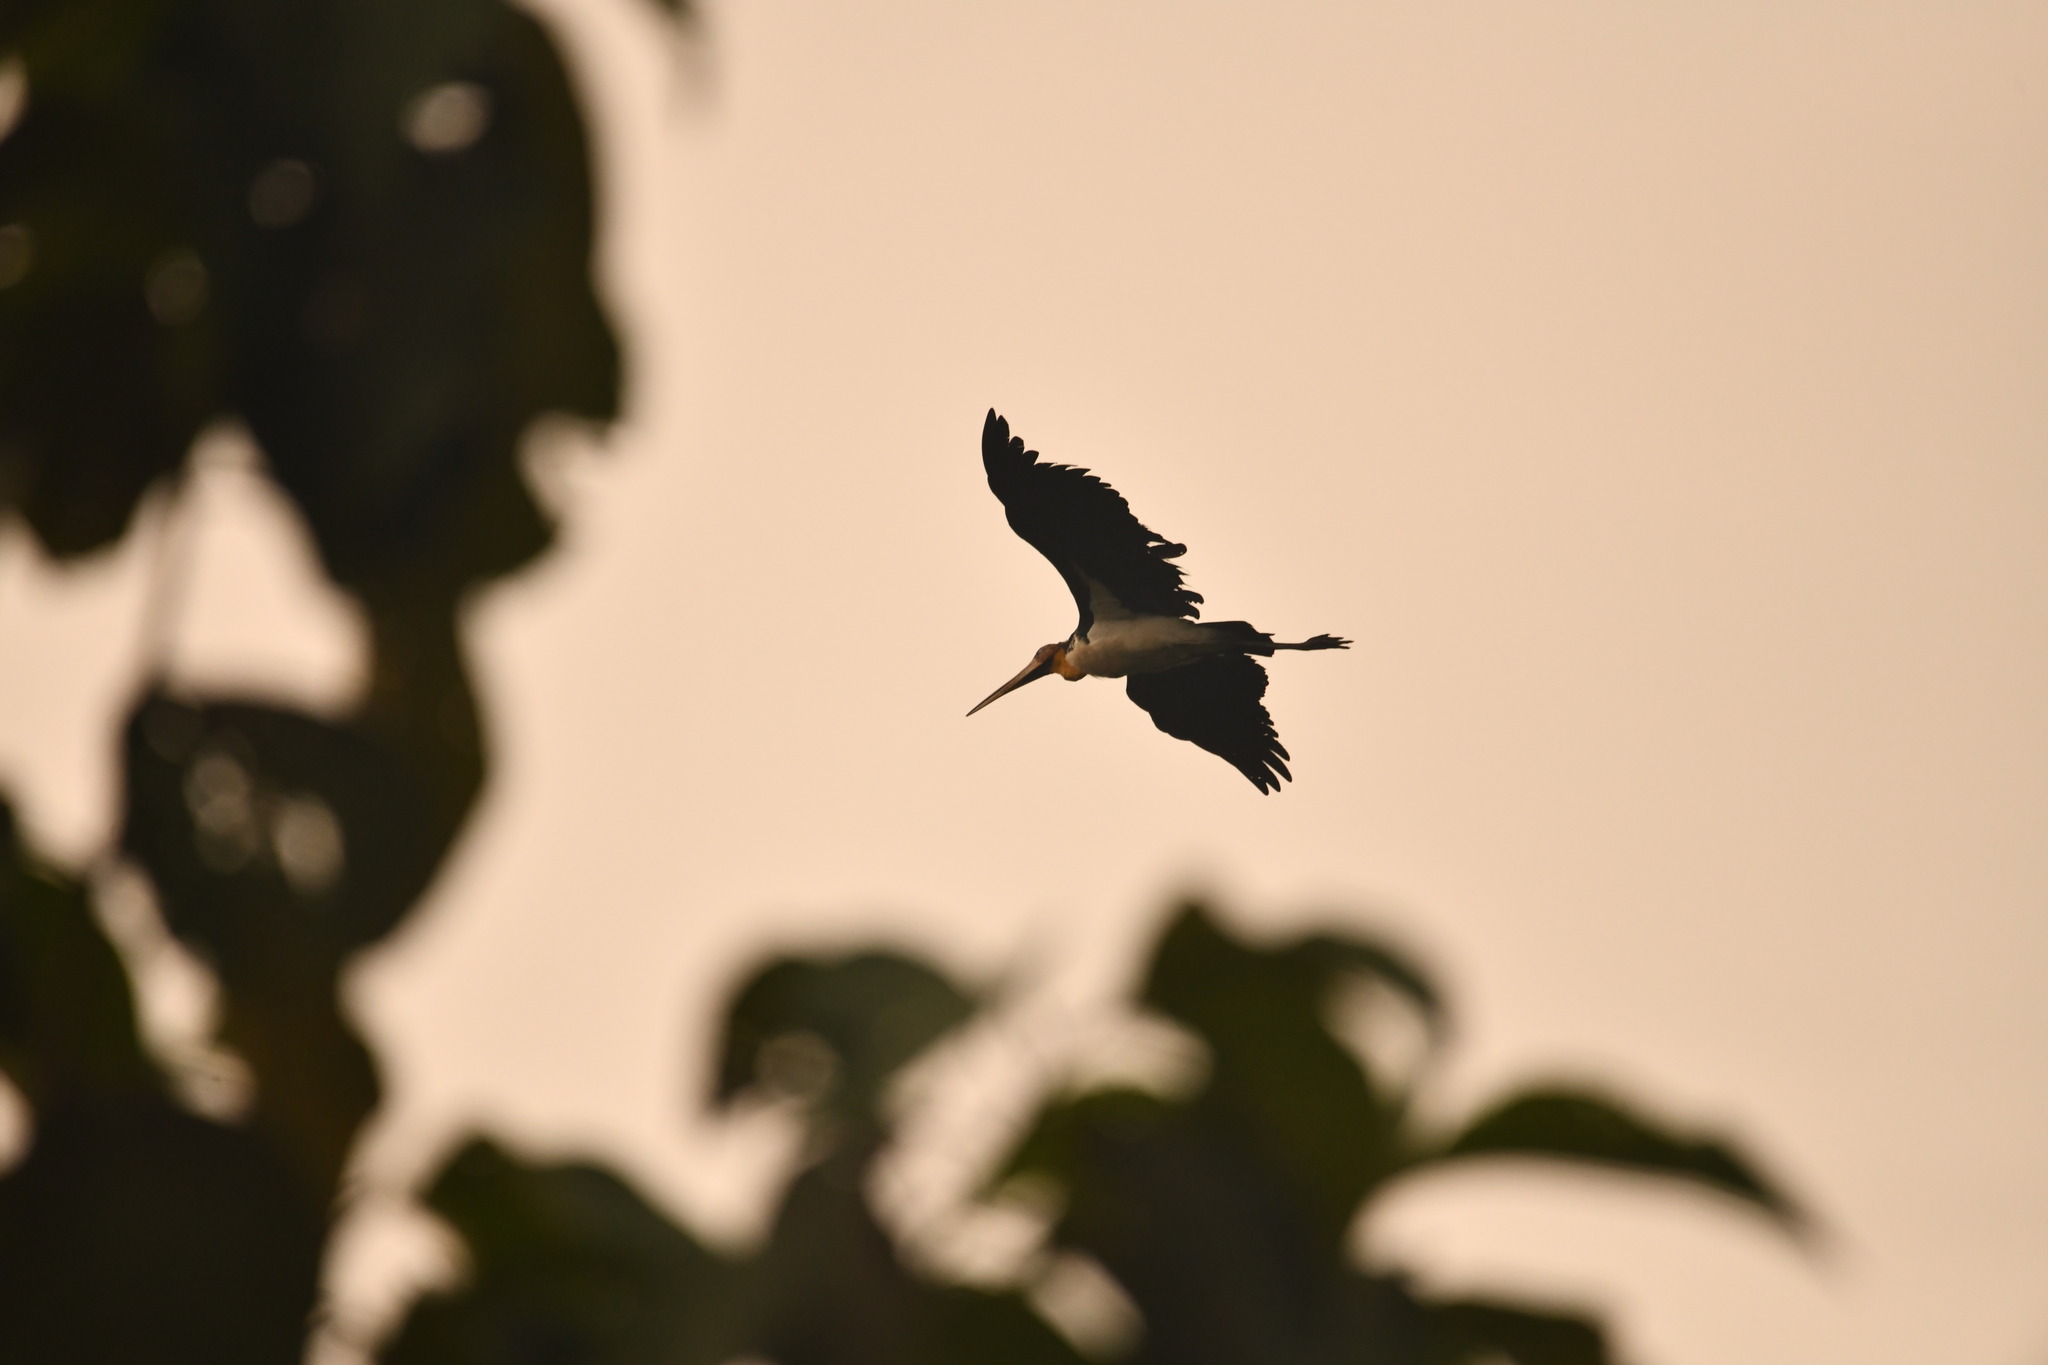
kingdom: Animalia
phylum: Chordata
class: Aves
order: Ciconiiformes
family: Ciconiidae
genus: Leptoptilos
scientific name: Leptoptilos javanicus
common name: Lesser adjutant
